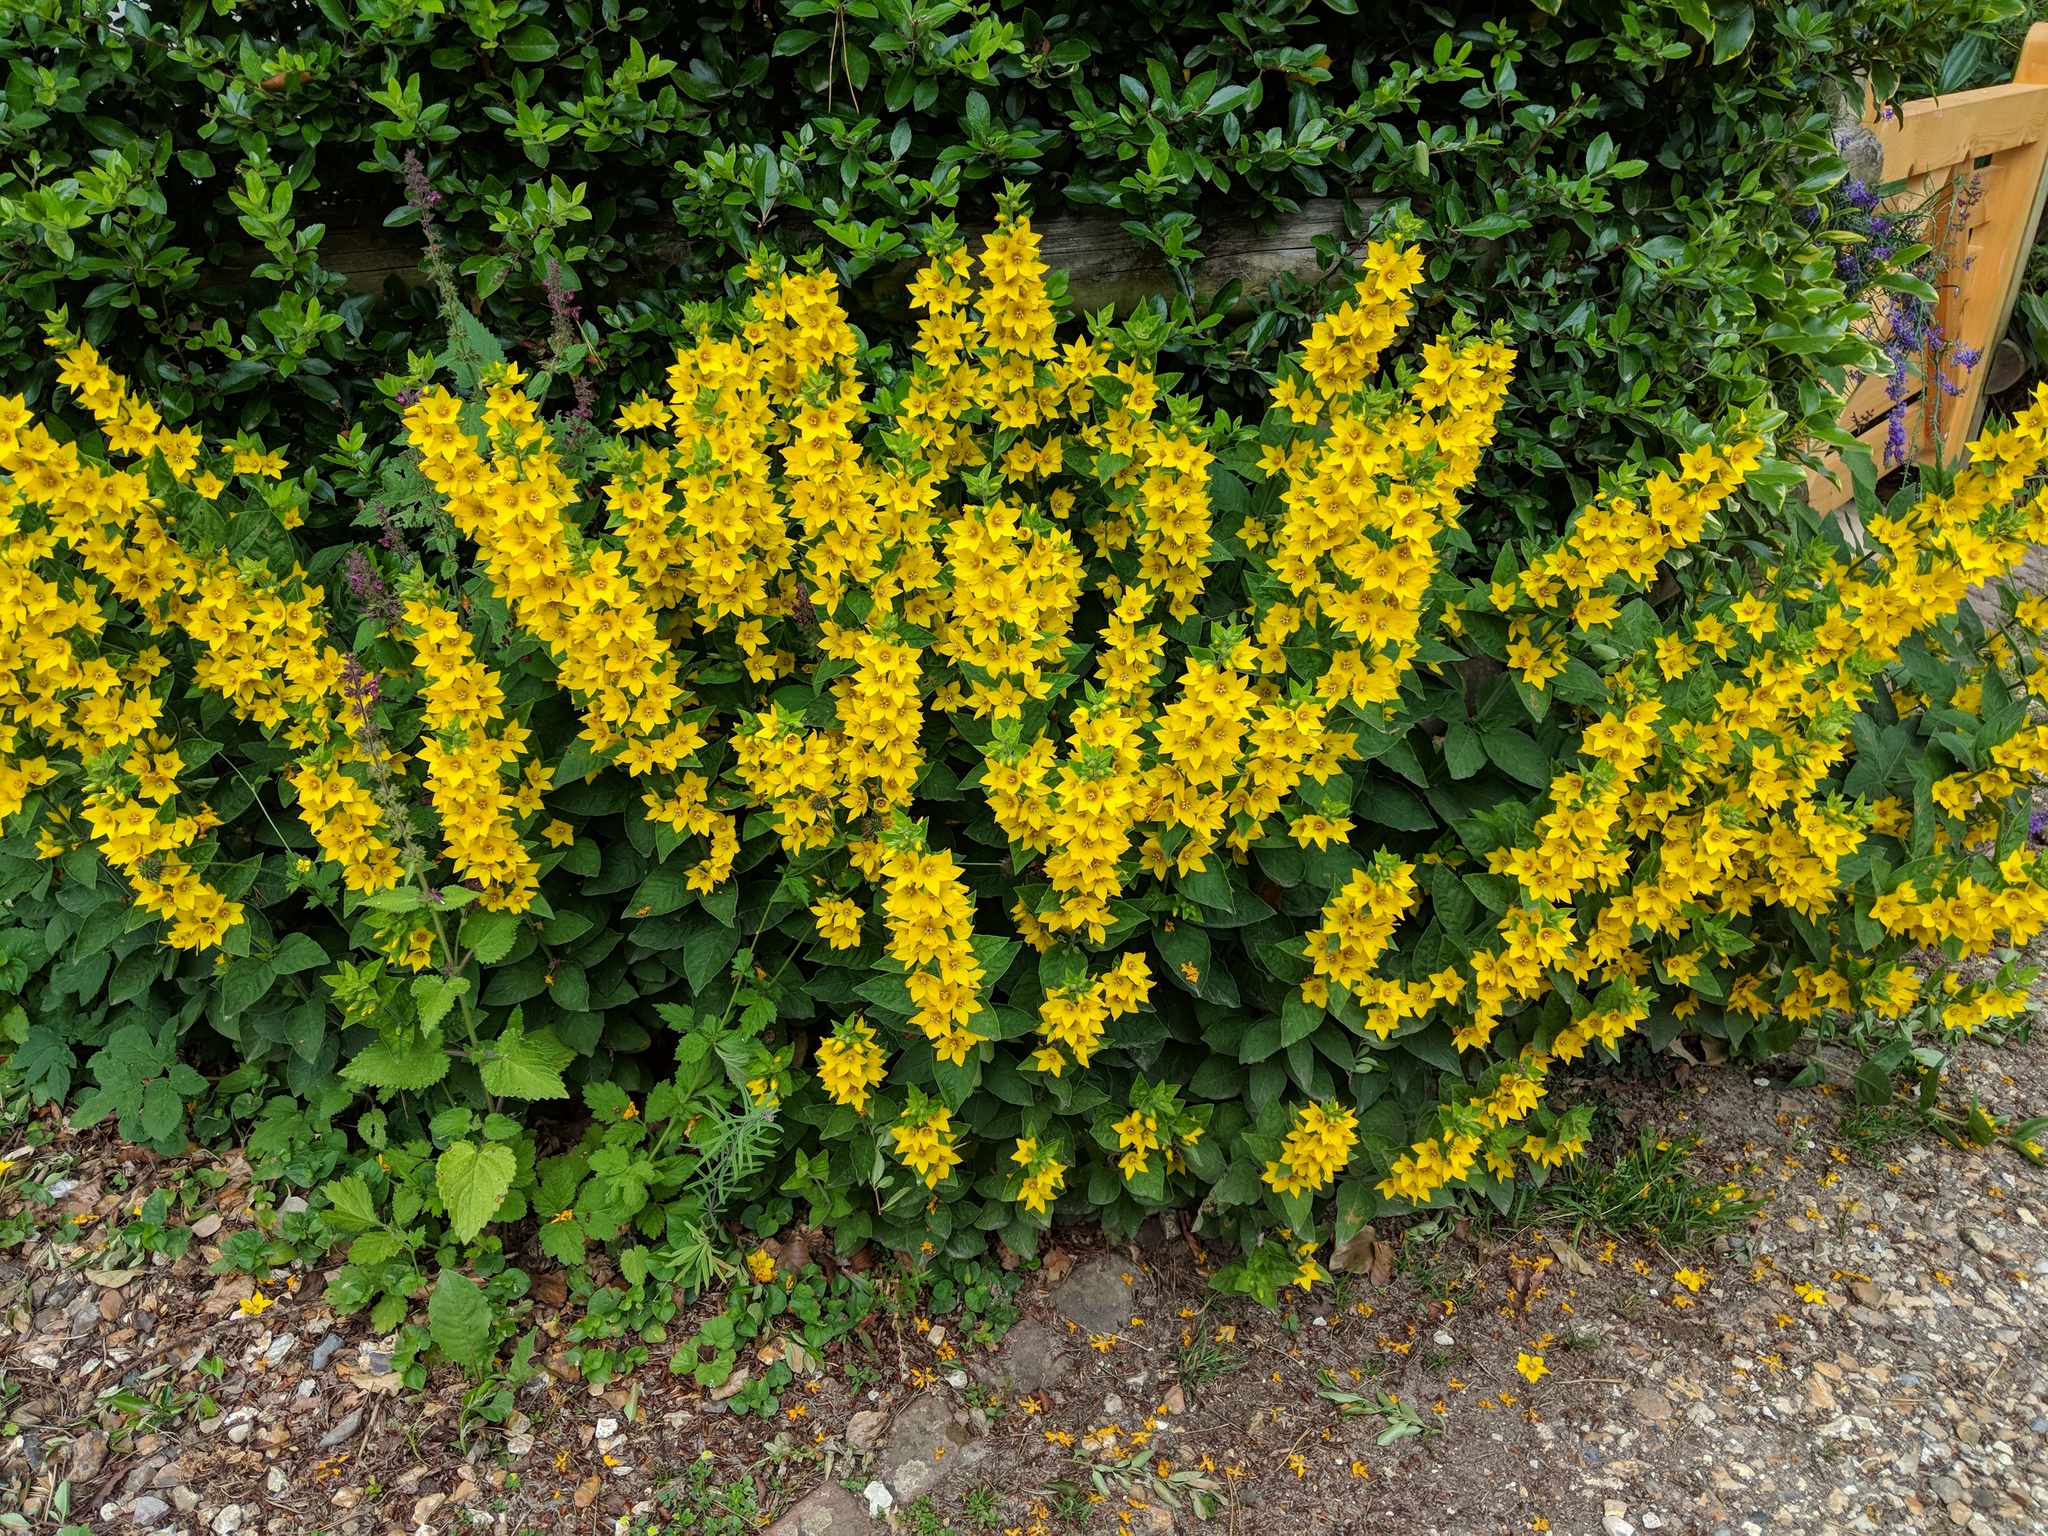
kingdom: Plantae
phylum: Tracheophyta
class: Magnoliopsida
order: Ericales
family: Primulaceae
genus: Lysimachia
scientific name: Lysimachia punctata
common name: Dotted loosestrife
